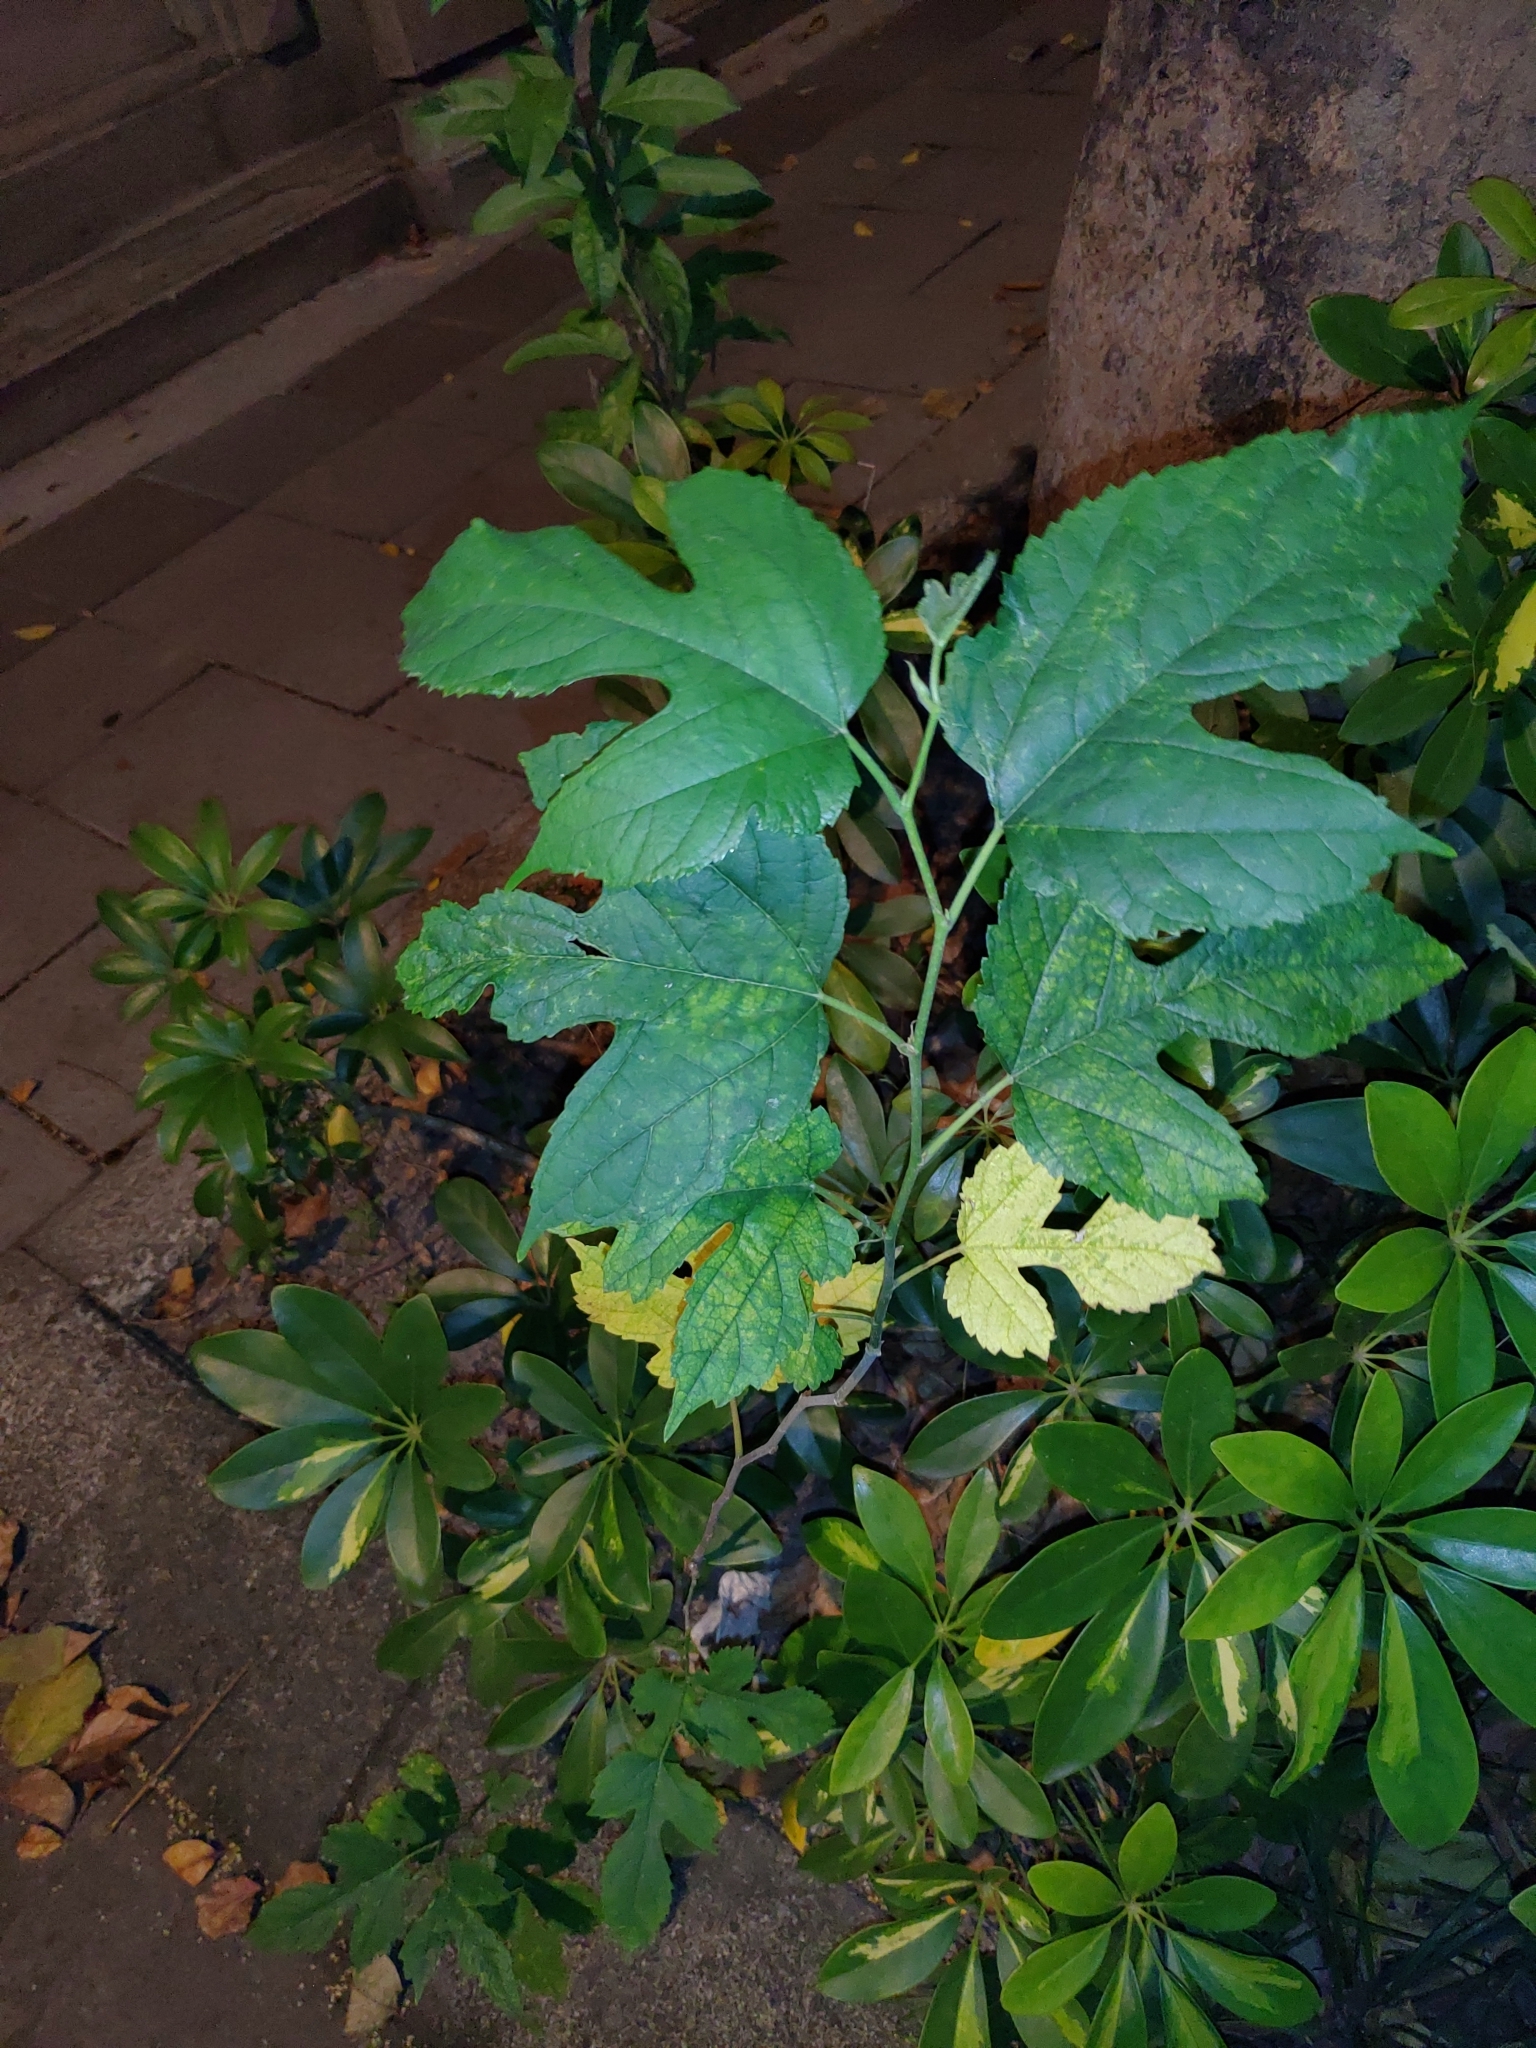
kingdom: Plantae
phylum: Tracheophyta
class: Magnoliopsida
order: Rosales
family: Moraceae
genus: Morus
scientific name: Morus indica
